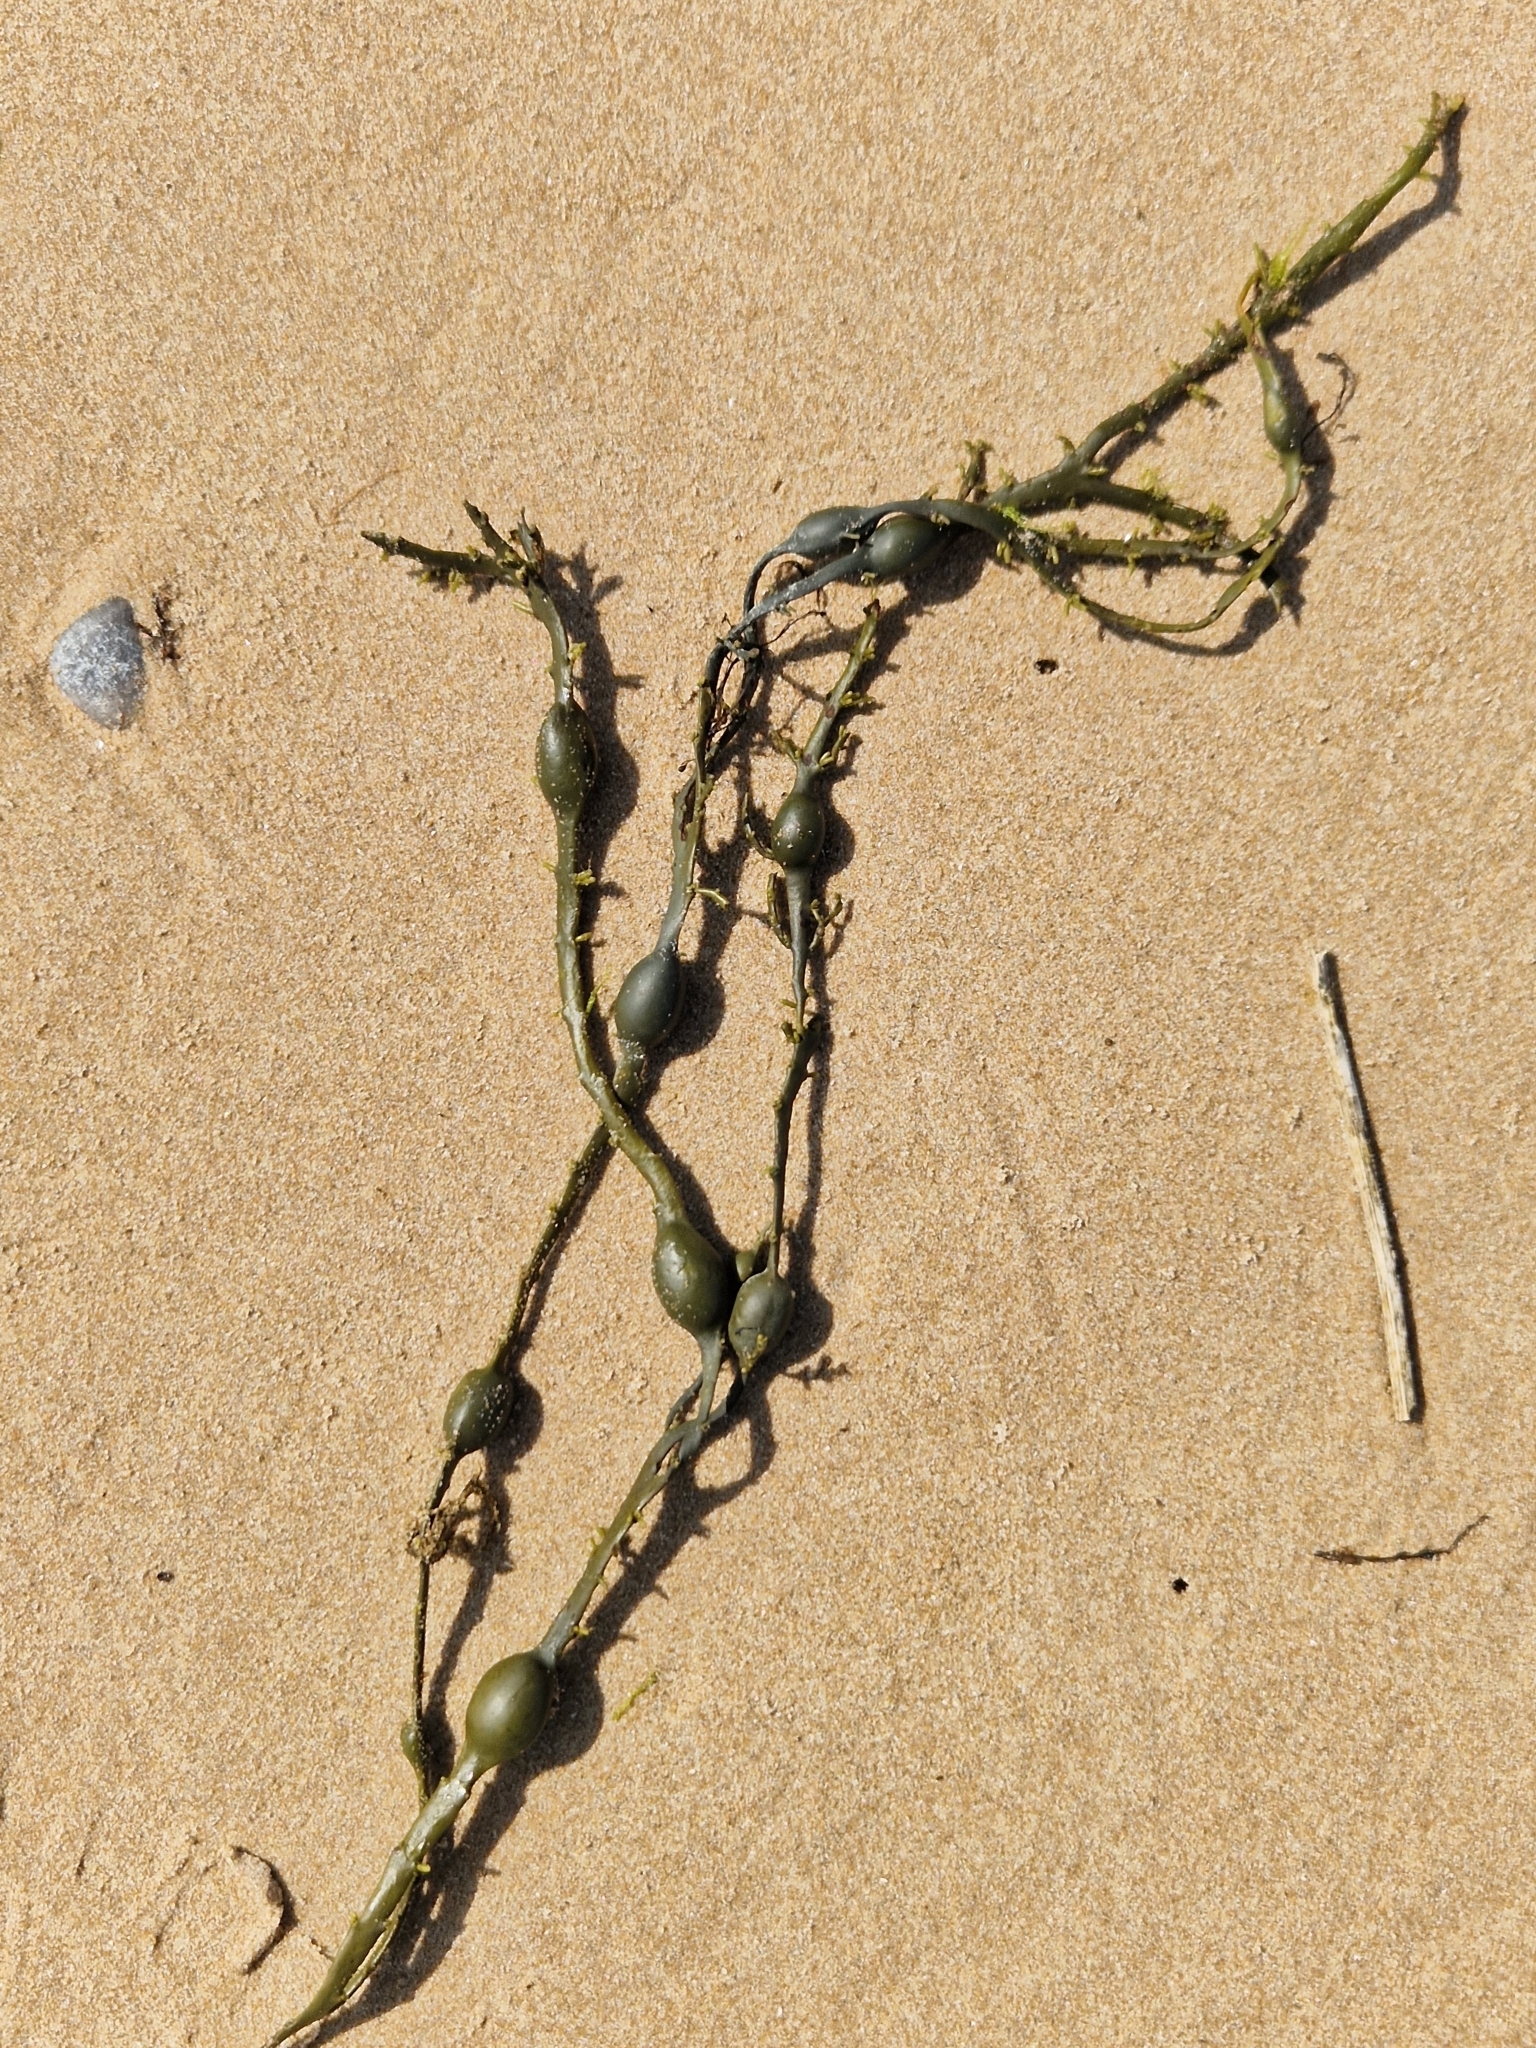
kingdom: Chromista
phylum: Ochrophyta
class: Phaeophyceae
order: Fucales
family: Fucaceae
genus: Ascophyllum
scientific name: Ascophyllum nodosum
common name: Knotted wrack
